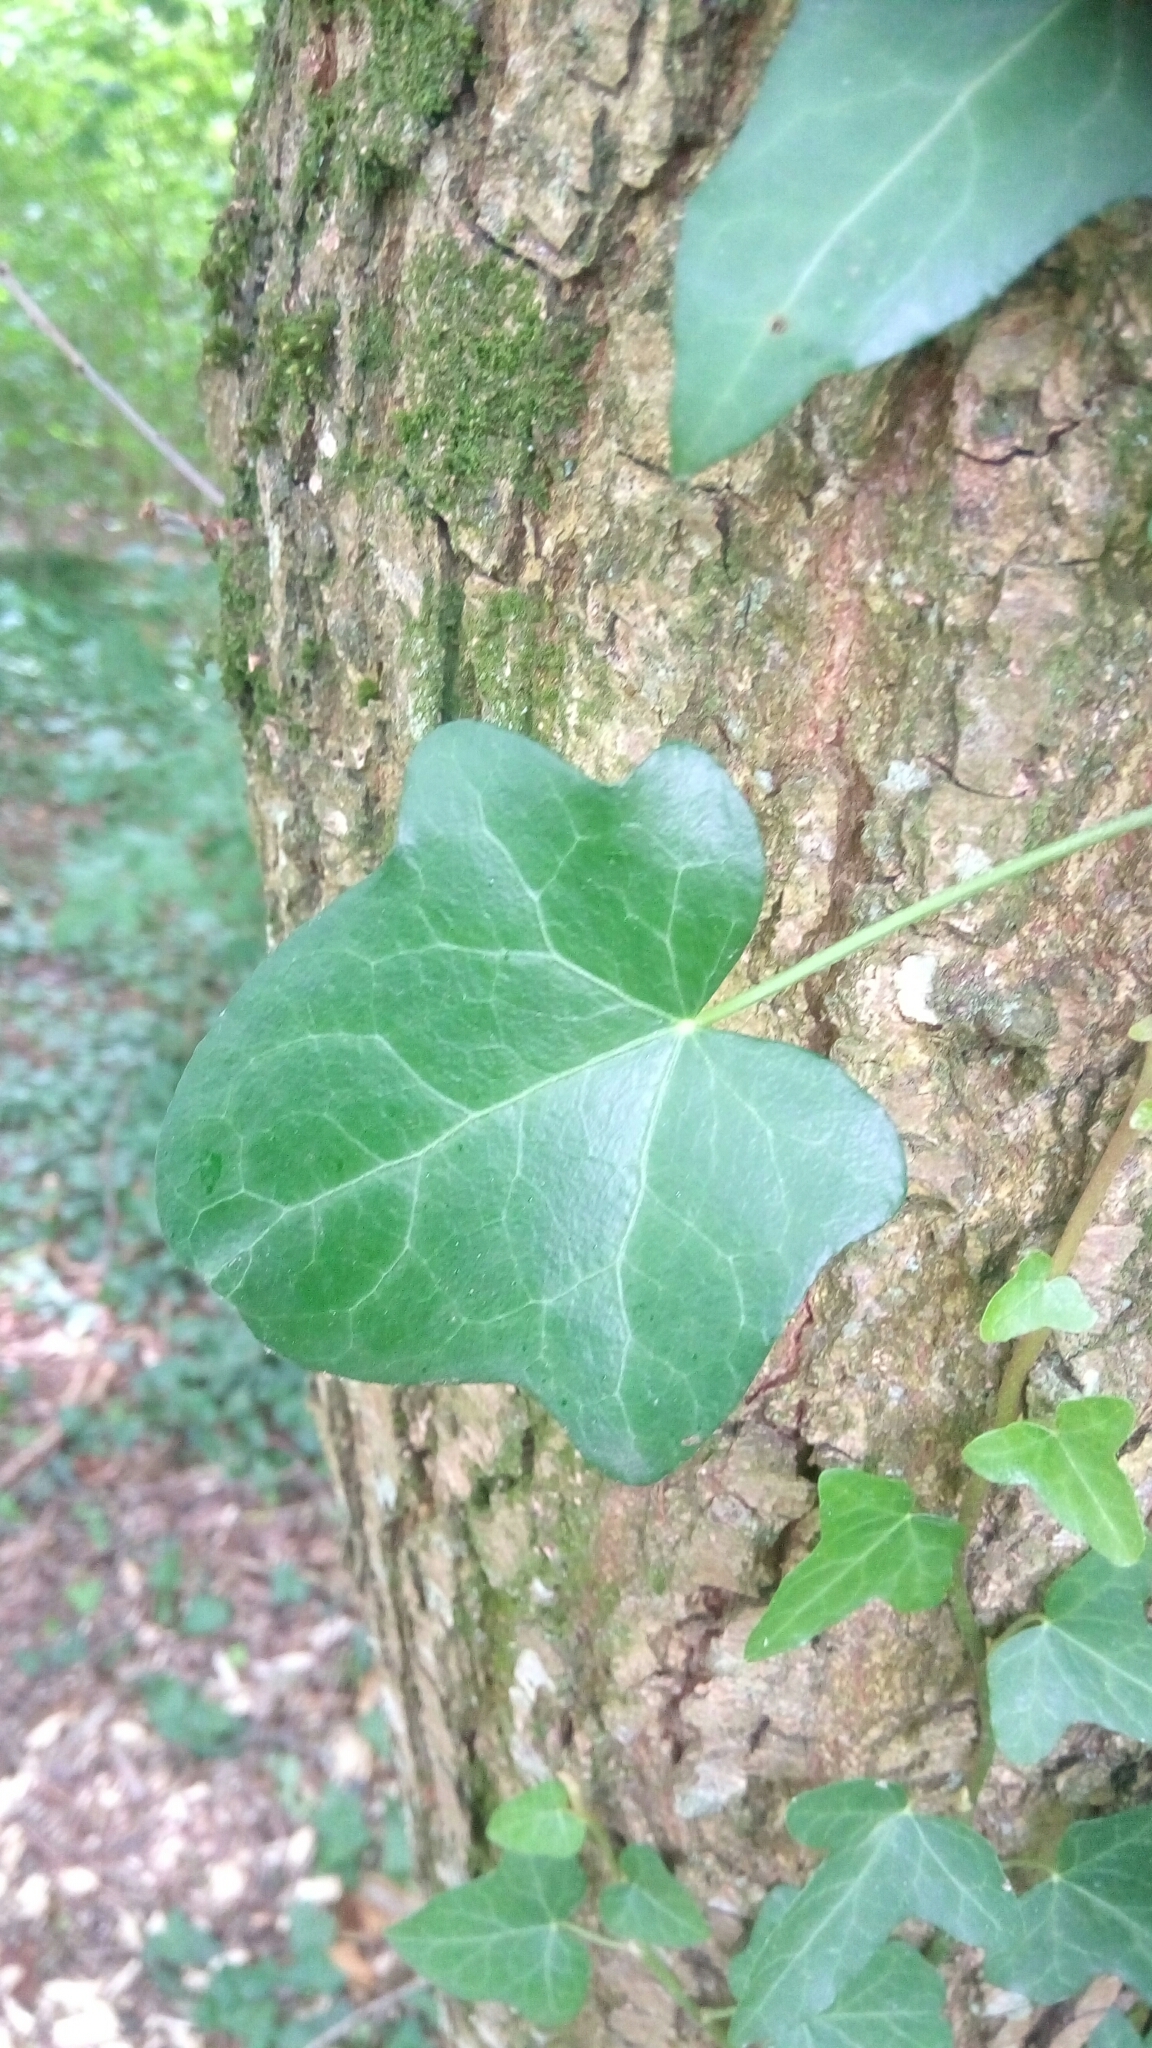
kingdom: Plantae
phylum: Tracheophyta
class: Magnoliopsida
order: Apiales
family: Araliaceae
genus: Hedera
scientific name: Hedera helix
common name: Ivy
